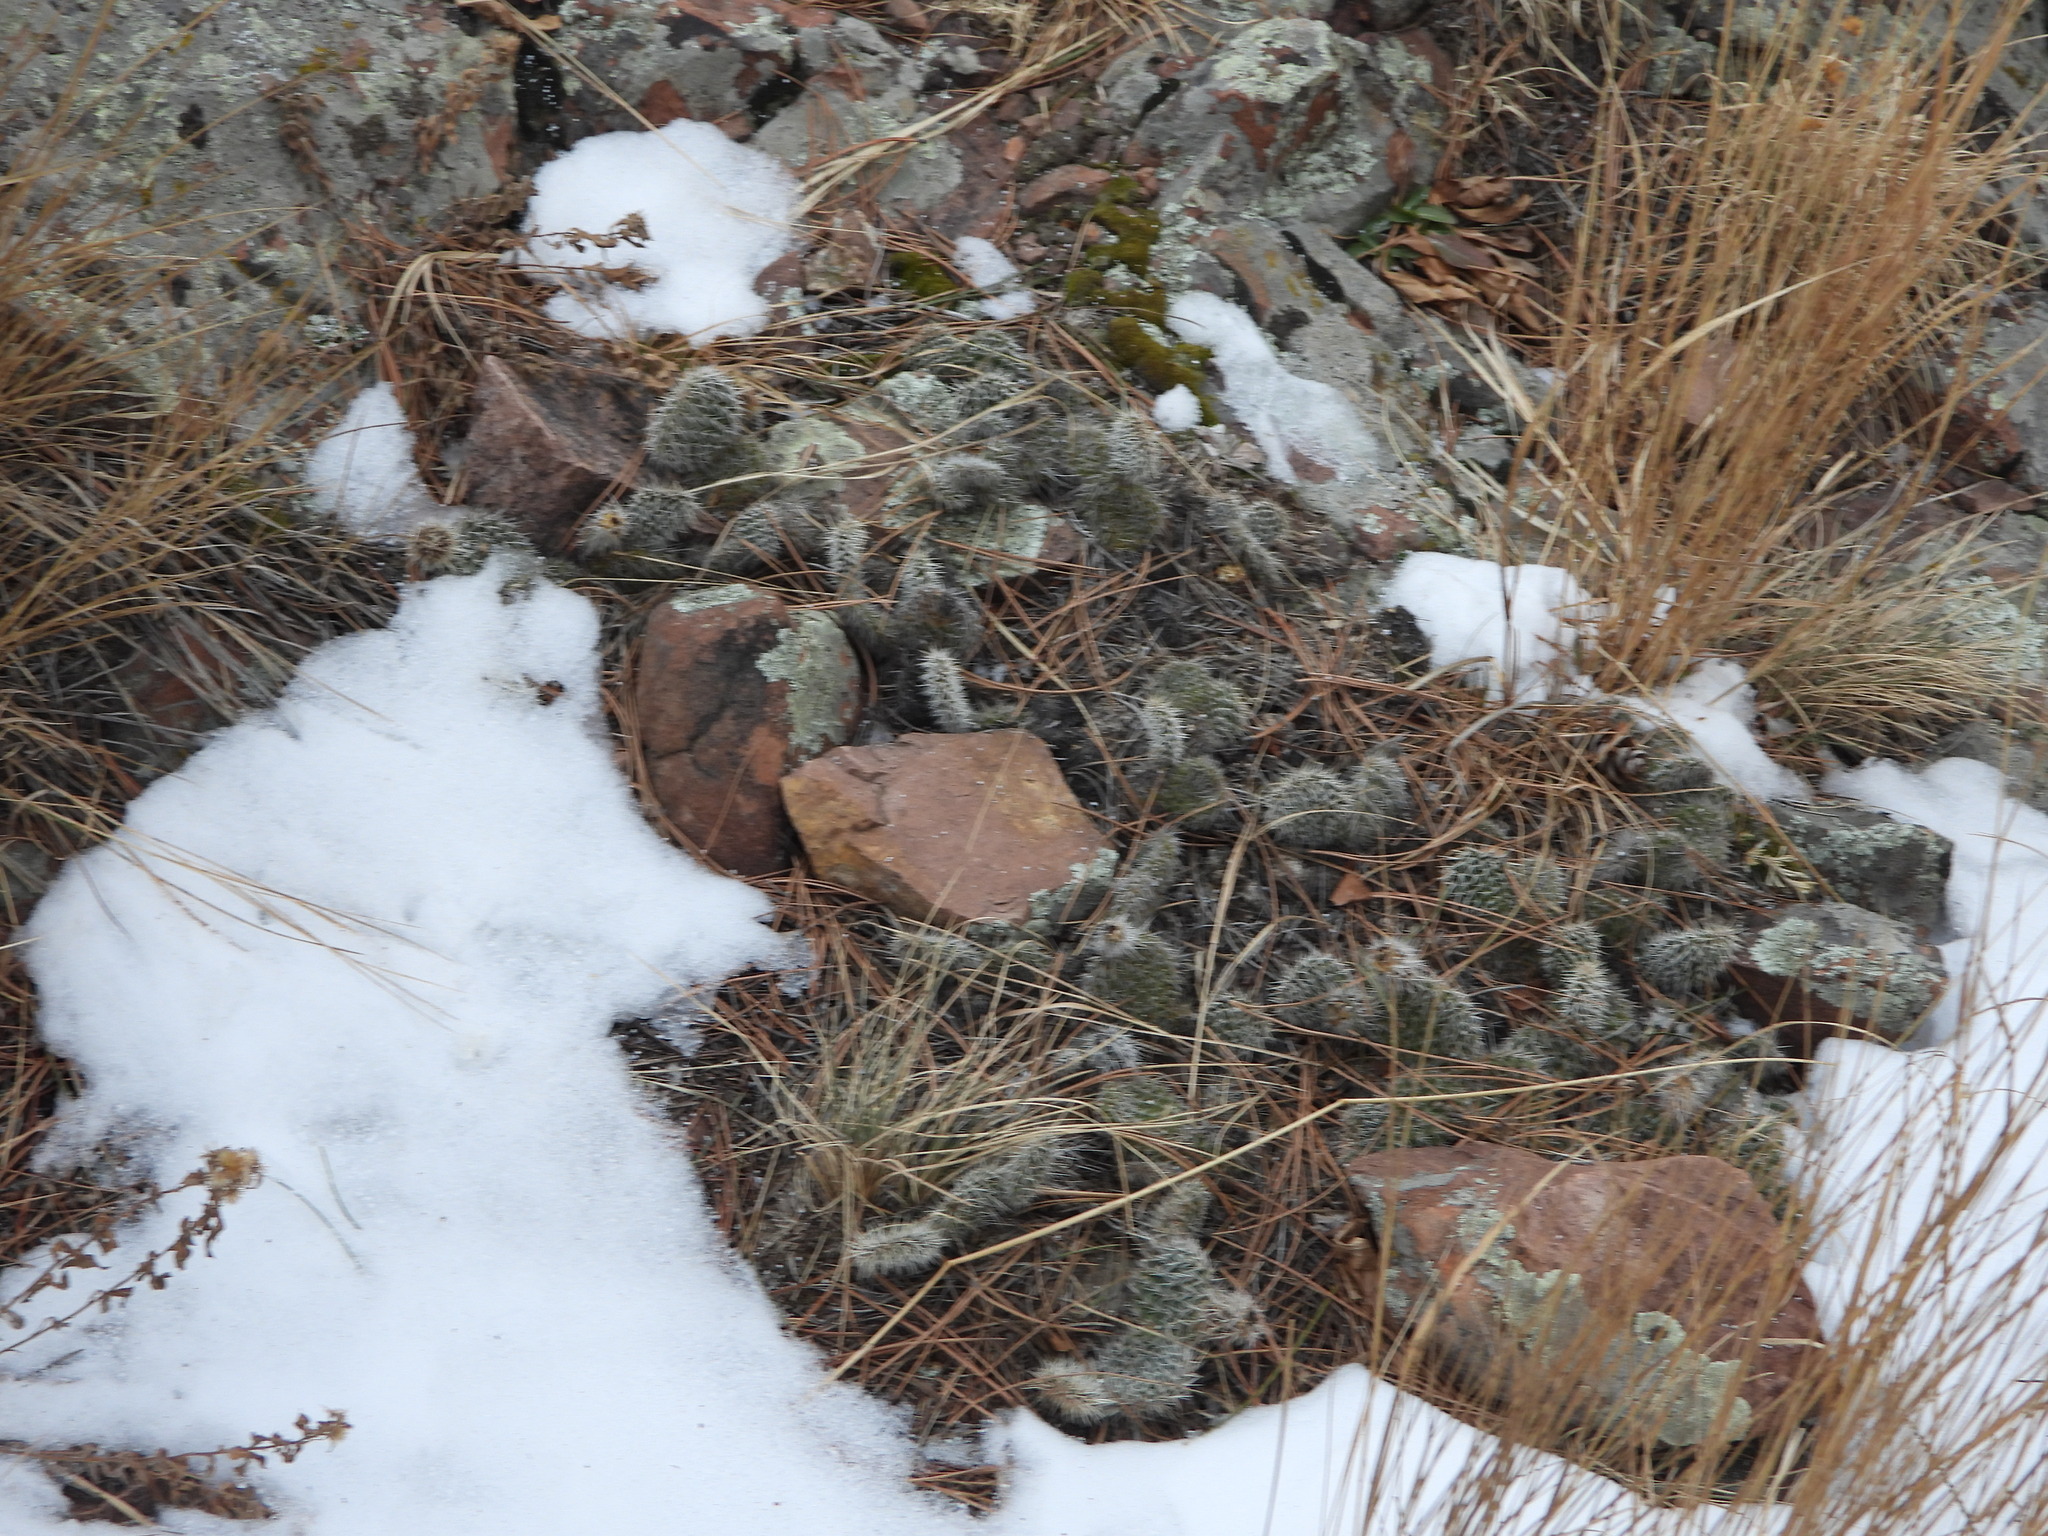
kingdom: Plantae
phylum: Tracheophyta
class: Magnoliopsida
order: Caryophyllales
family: Cactaceae
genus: Opuntia
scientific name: Opuntia polyacantha
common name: Plains prickly-pear
